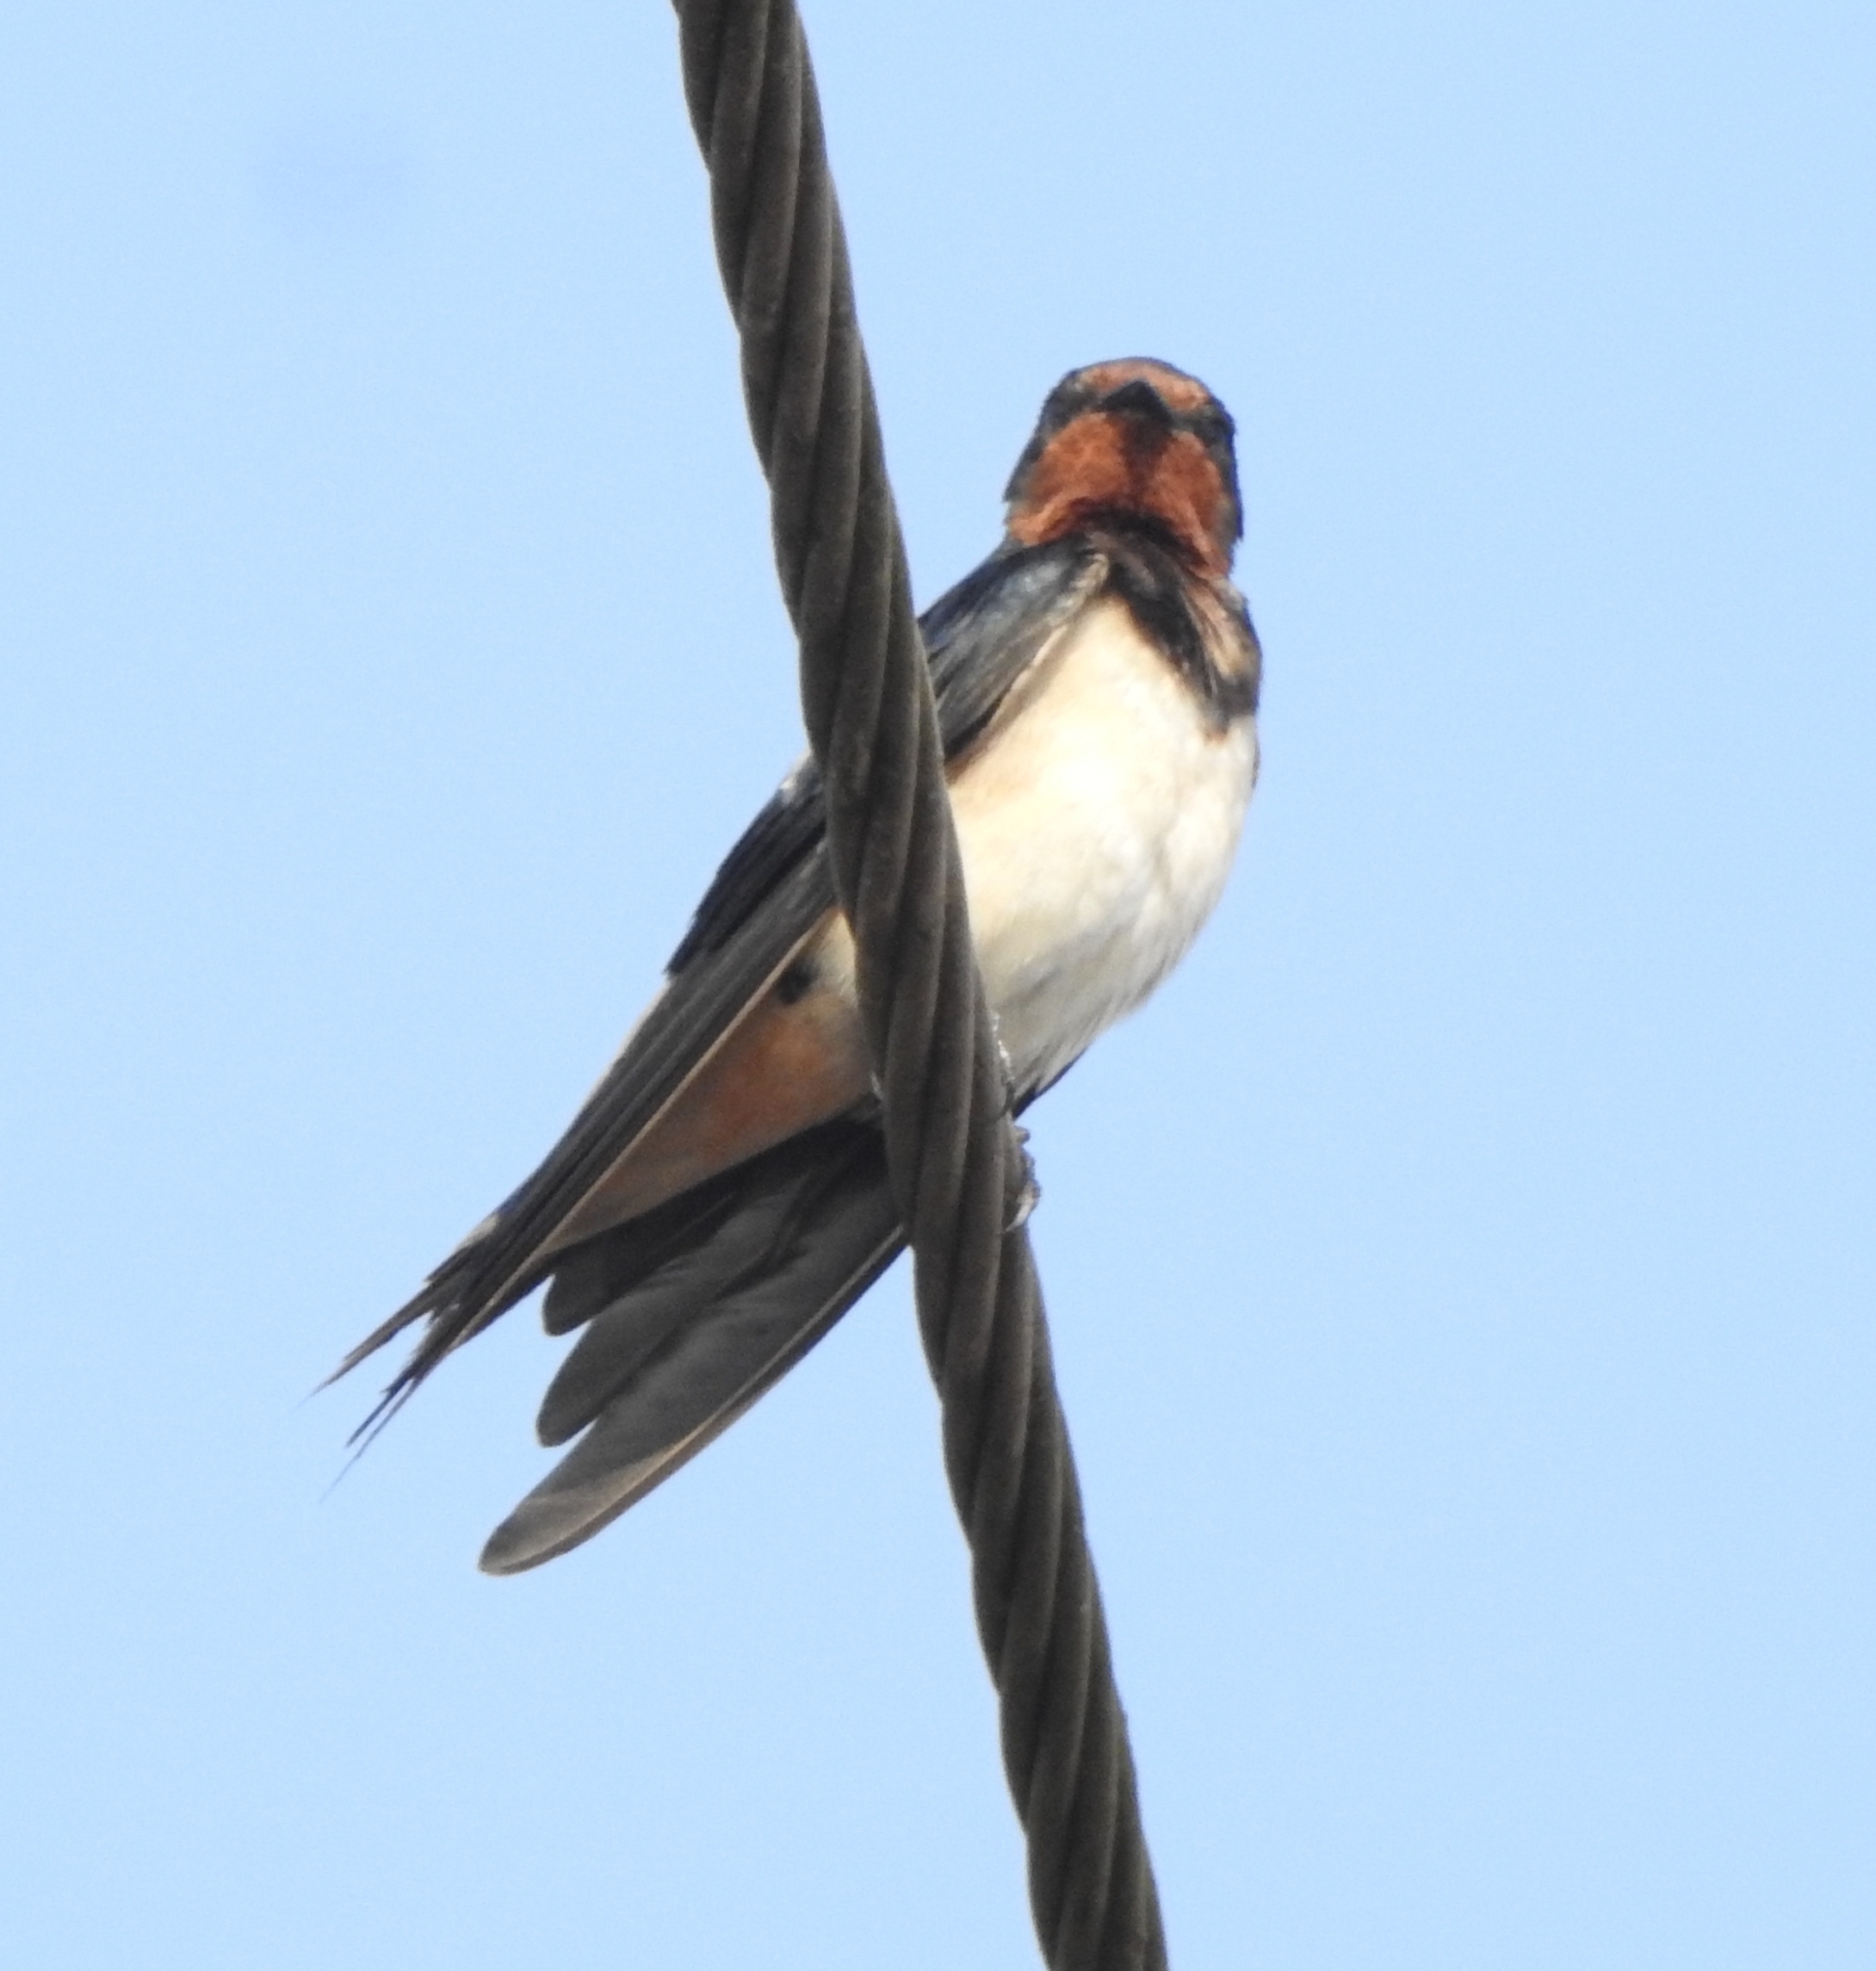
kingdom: Animalia
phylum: Chordata
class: Aves
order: Passeriformes
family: Hirundinidae
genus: Hirundo
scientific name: Hirundo rustica
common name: Barn swallow
